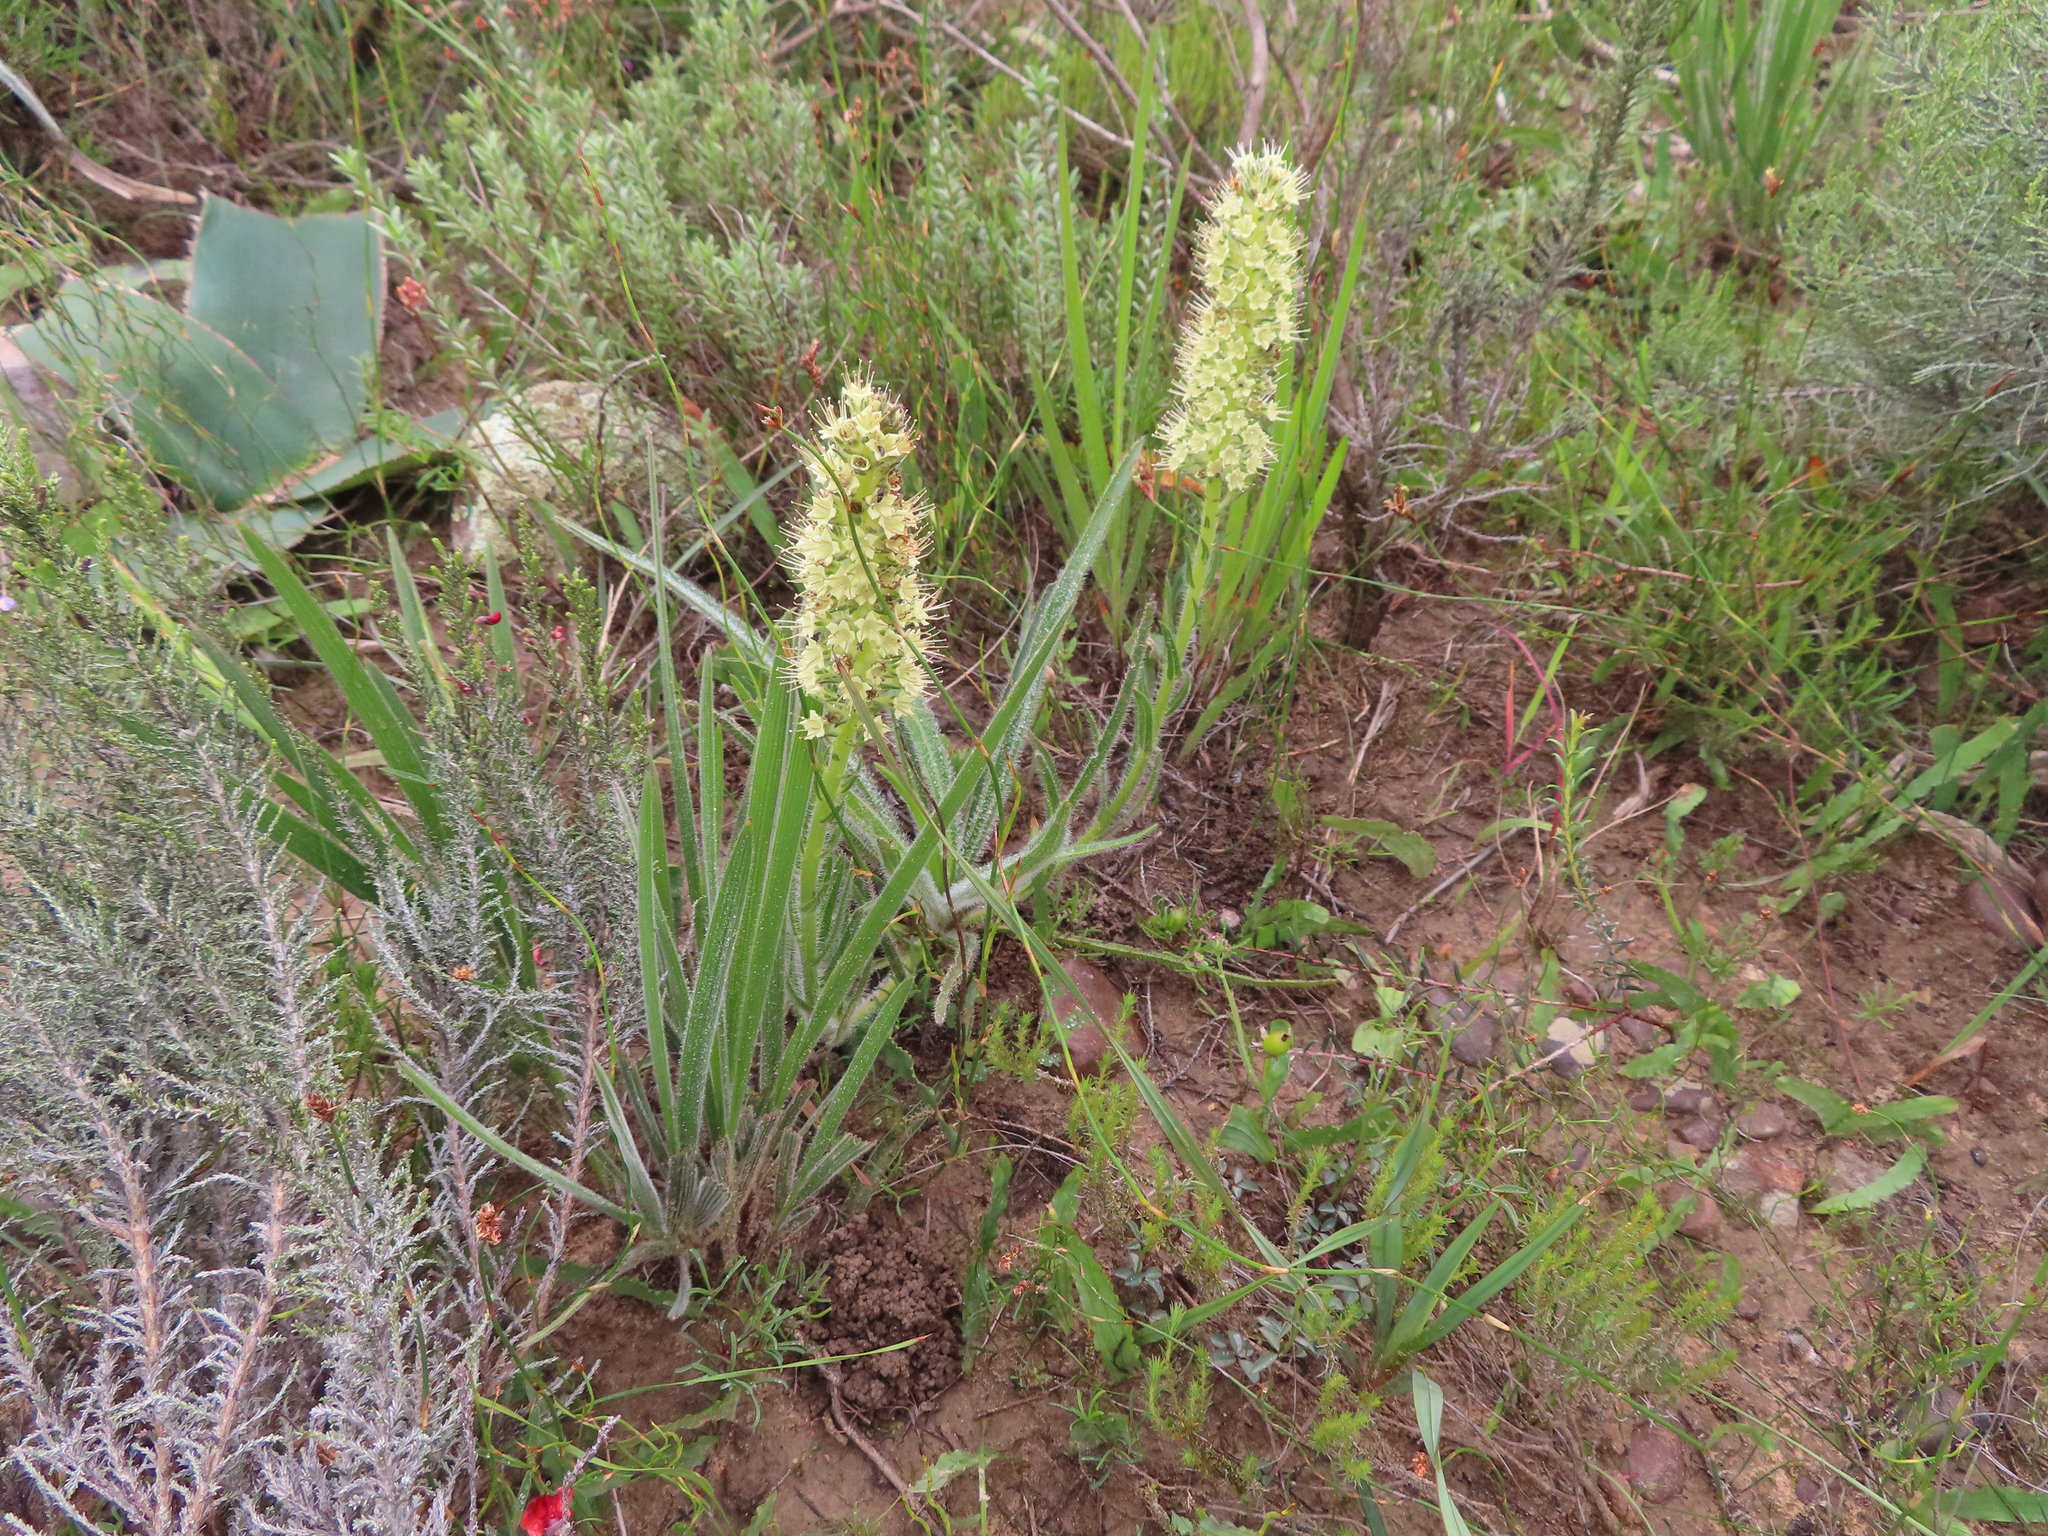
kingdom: Plantae
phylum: Tracheophyta
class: Magnoliopsida
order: Boraginales
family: Boraginaceae
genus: Lobostemon
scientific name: Lobostemon splendens
